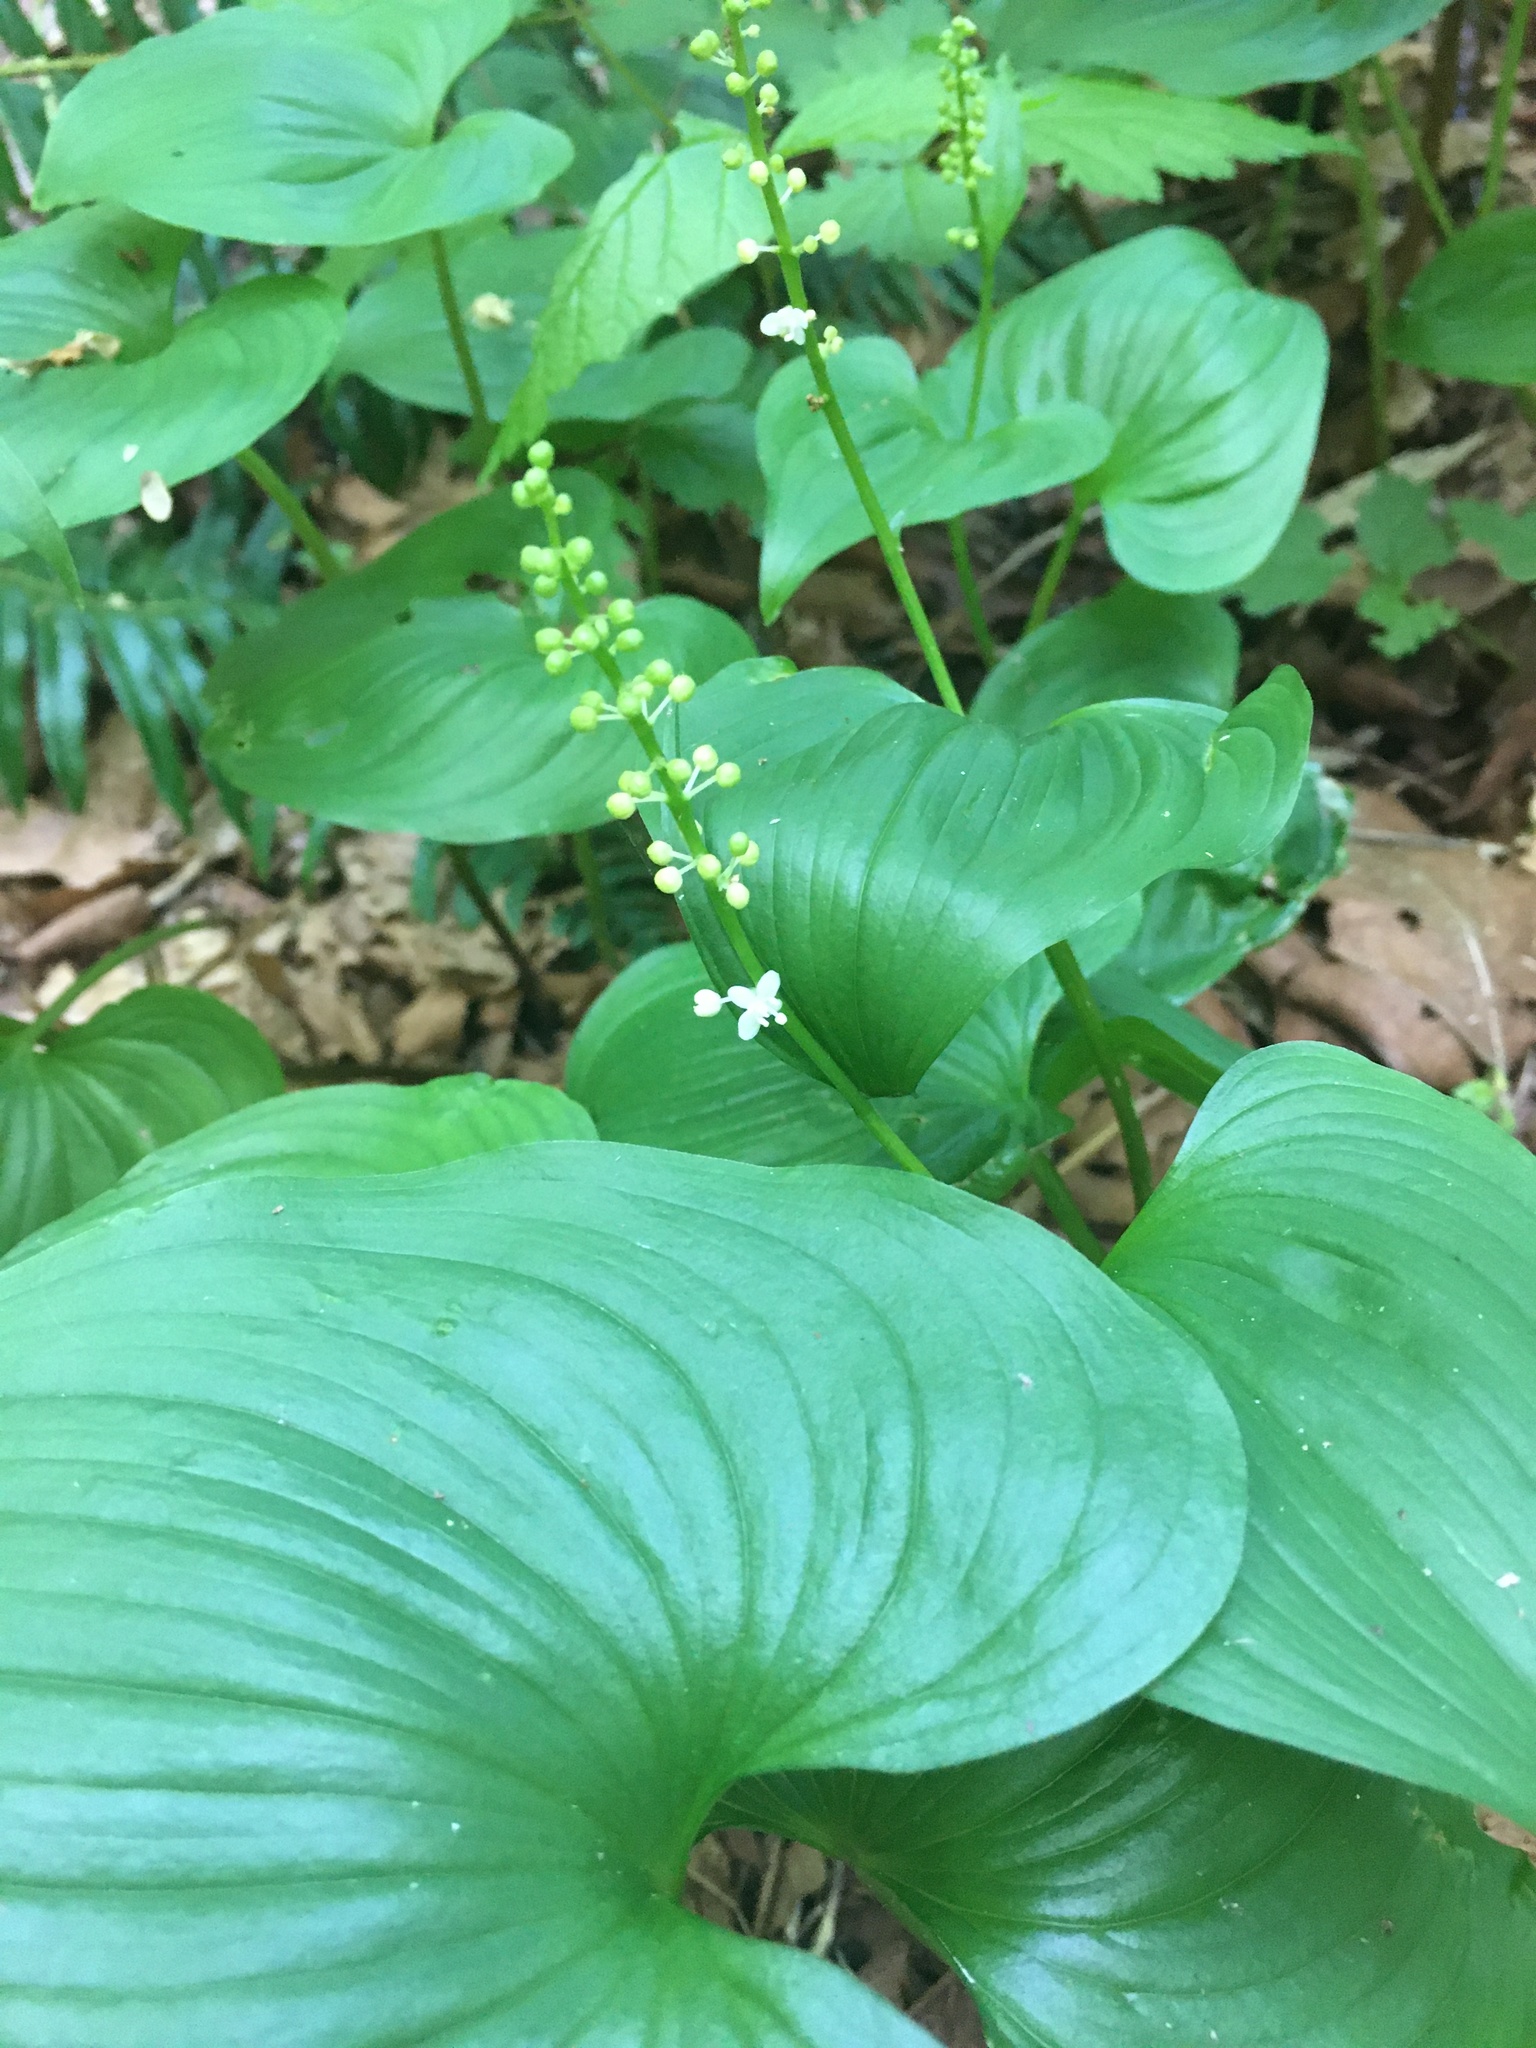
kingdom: Plantae
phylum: Tracheophyta
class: Liliopsida
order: Asparagales
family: Asparagaceae
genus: Maianthemum
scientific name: Maianthemum dilatatum
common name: False lily-of-the-valley
